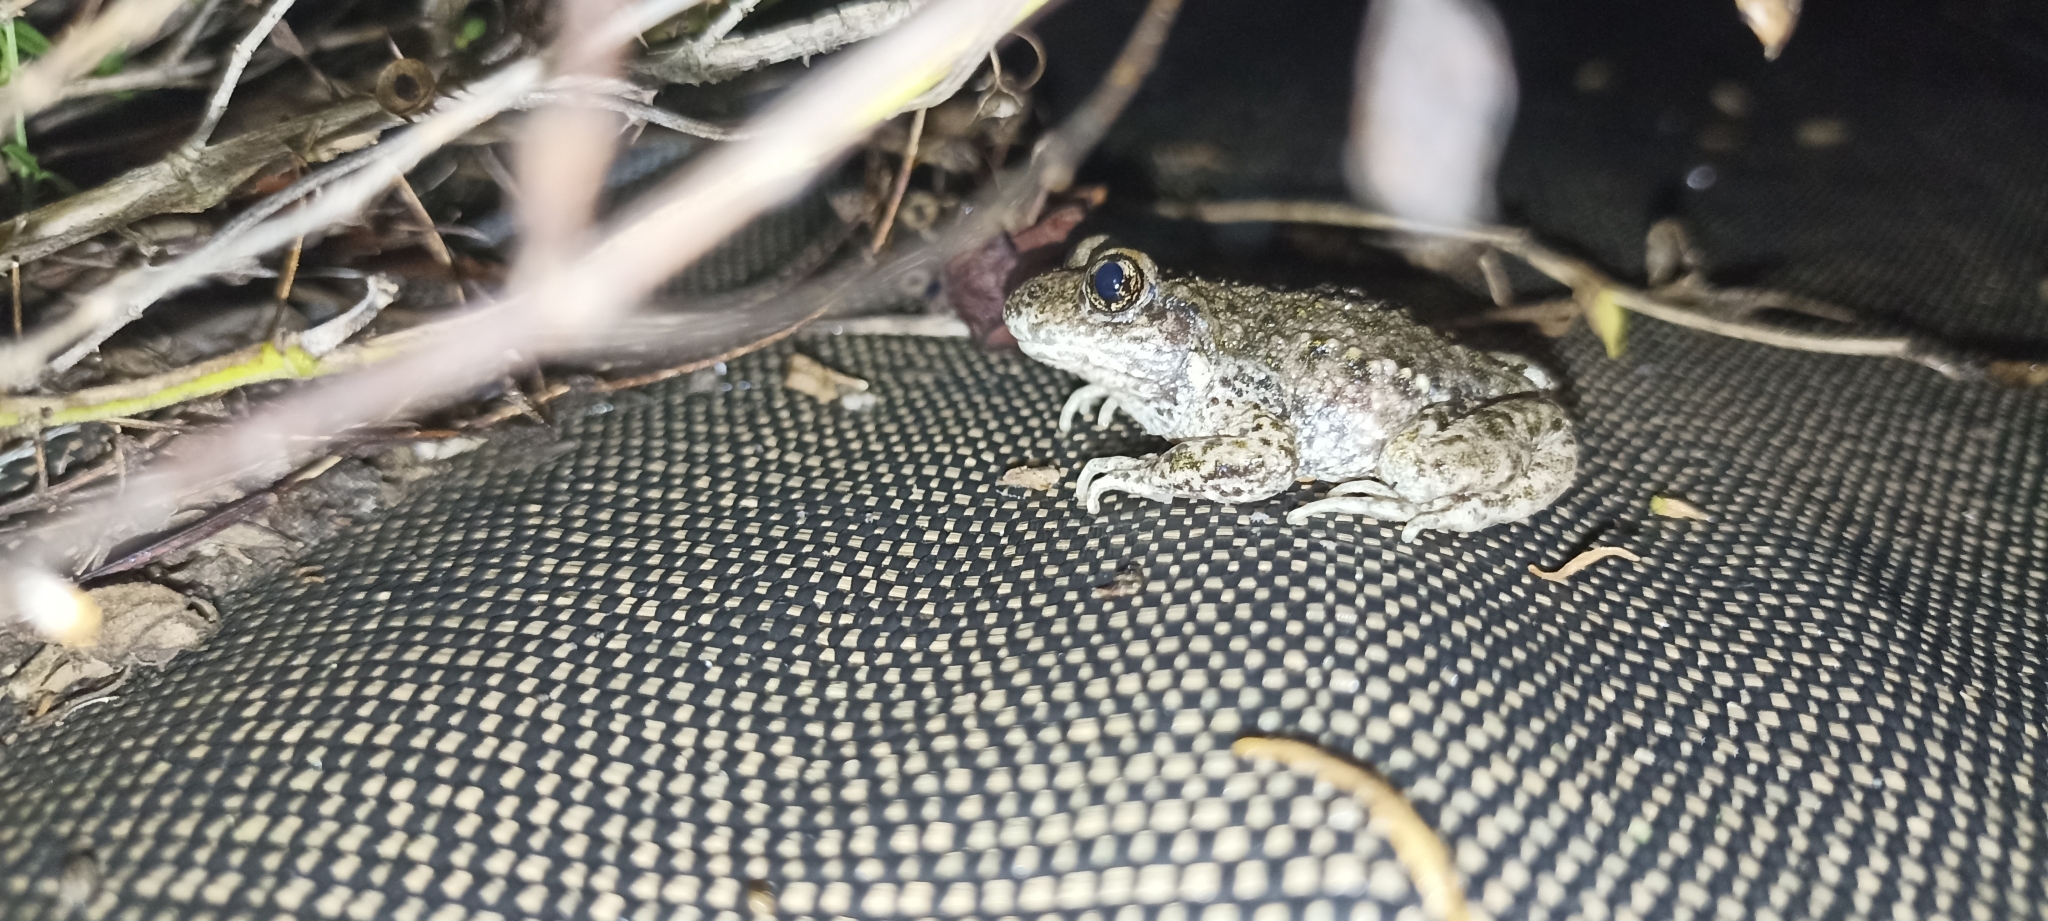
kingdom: Animalia
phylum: Chordata
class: Amphibia
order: Anura
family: Alytidae
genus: Alytes
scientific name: Alytes obstetricans
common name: Midwife toad
